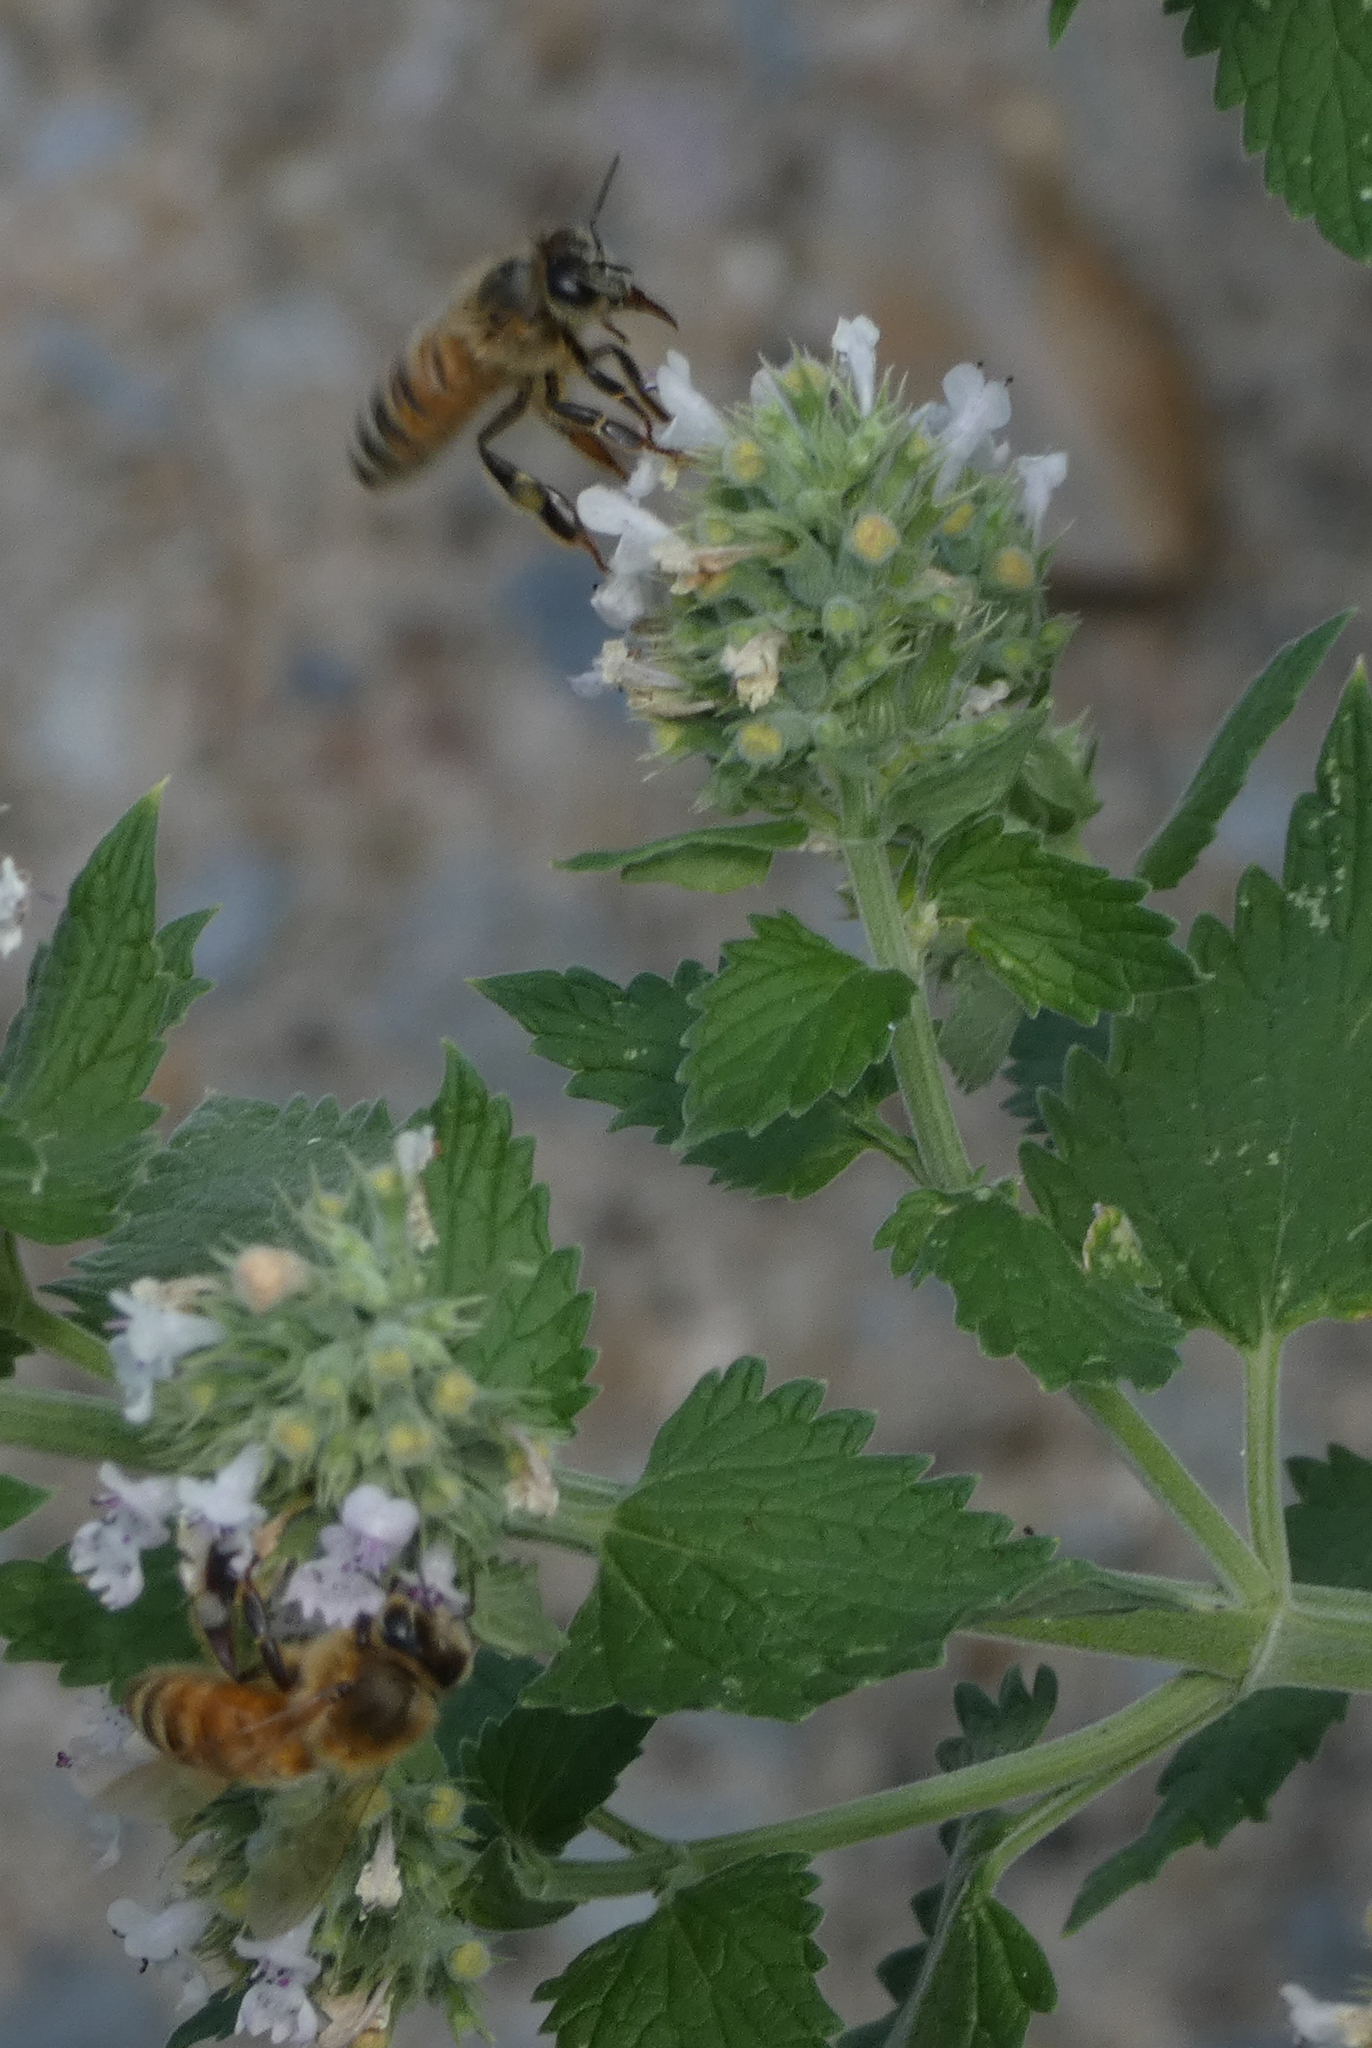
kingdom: Animalia
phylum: Arthropoda
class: Insecta
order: Hymenoptera
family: Apidae
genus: Apis
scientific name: Apis mellifera
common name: Honey bee
